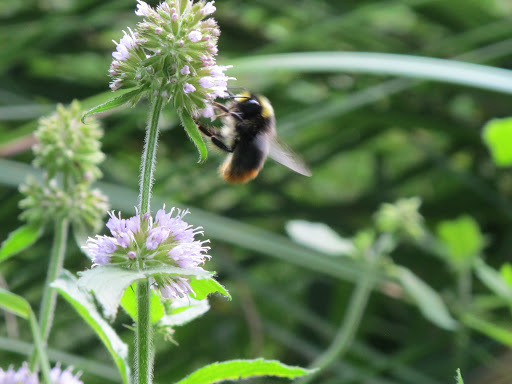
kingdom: Plantae
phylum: Tracheophyta
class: Magnoliopsida
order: Lamiales
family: Lamiaceae
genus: Mentha
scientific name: Mentha aquatica
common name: Water mint
